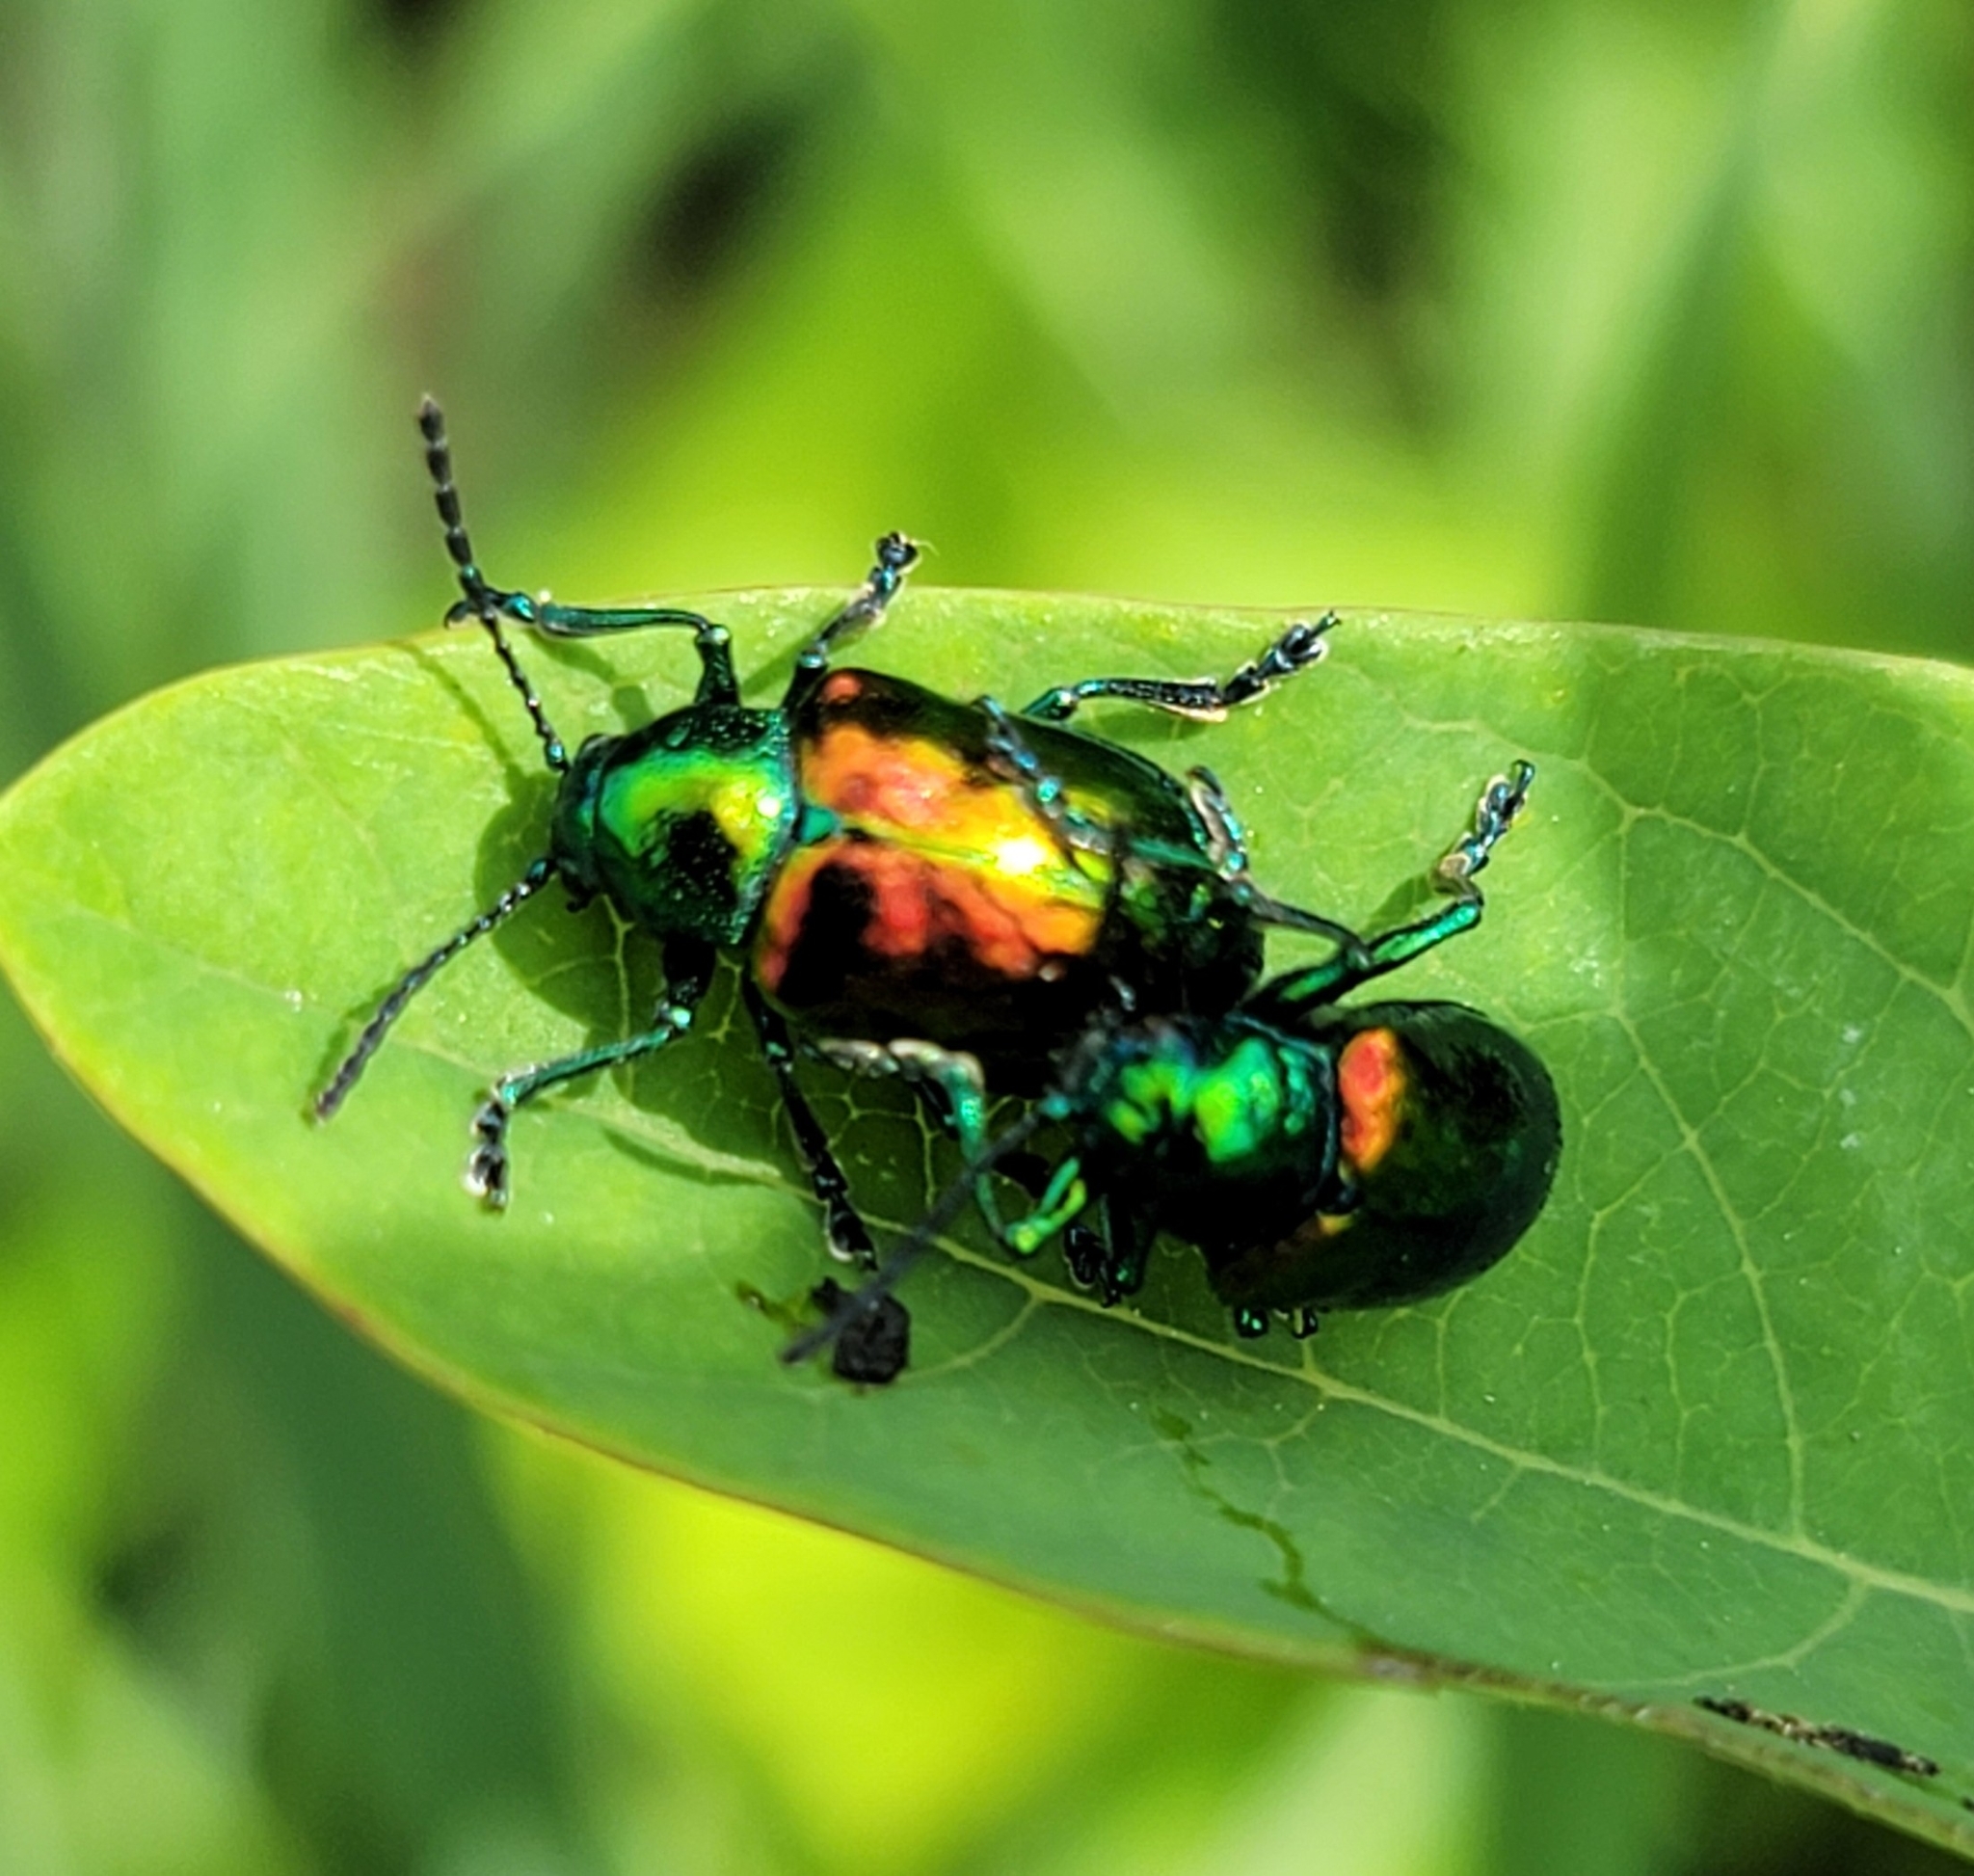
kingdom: Animalia
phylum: Arthropoda
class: Insecta
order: Coleoptera
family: Chrysomelidae
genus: Chrysochus
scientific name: Chrysochus auratus
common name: Dogbane leaf beetle
